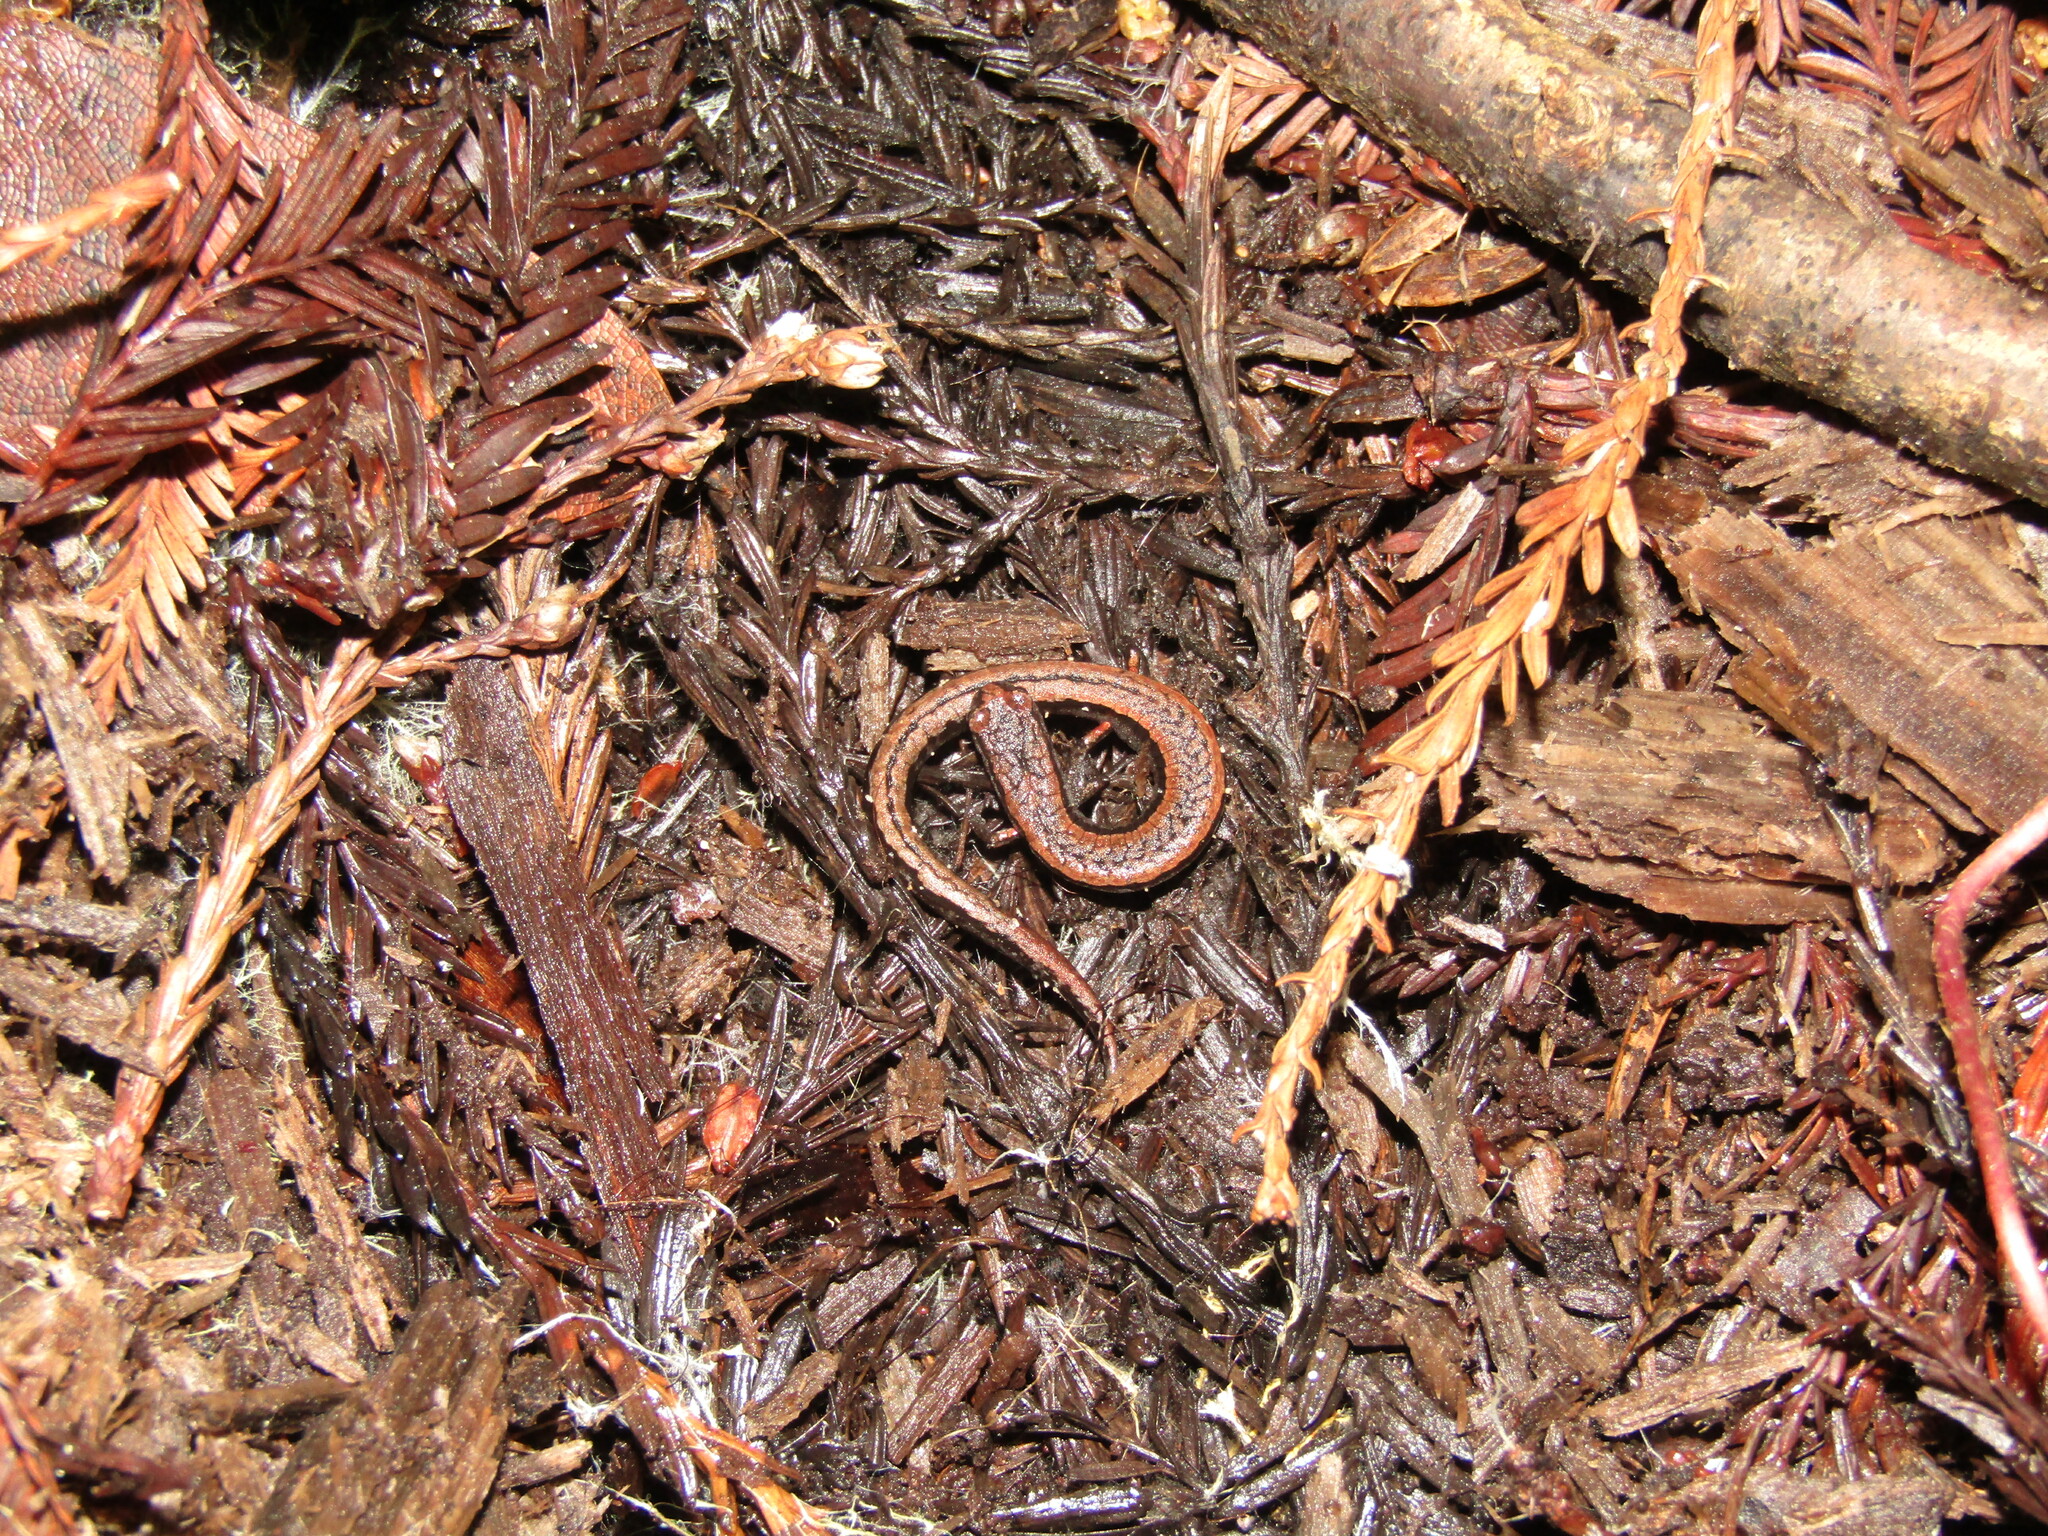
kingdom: Animalia
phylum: Chordata
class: Amphibia
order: Caudata
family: Plethodontidae
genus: Batrachoseps
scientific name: Batrachoseps attenuatus
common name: California slender salamander
